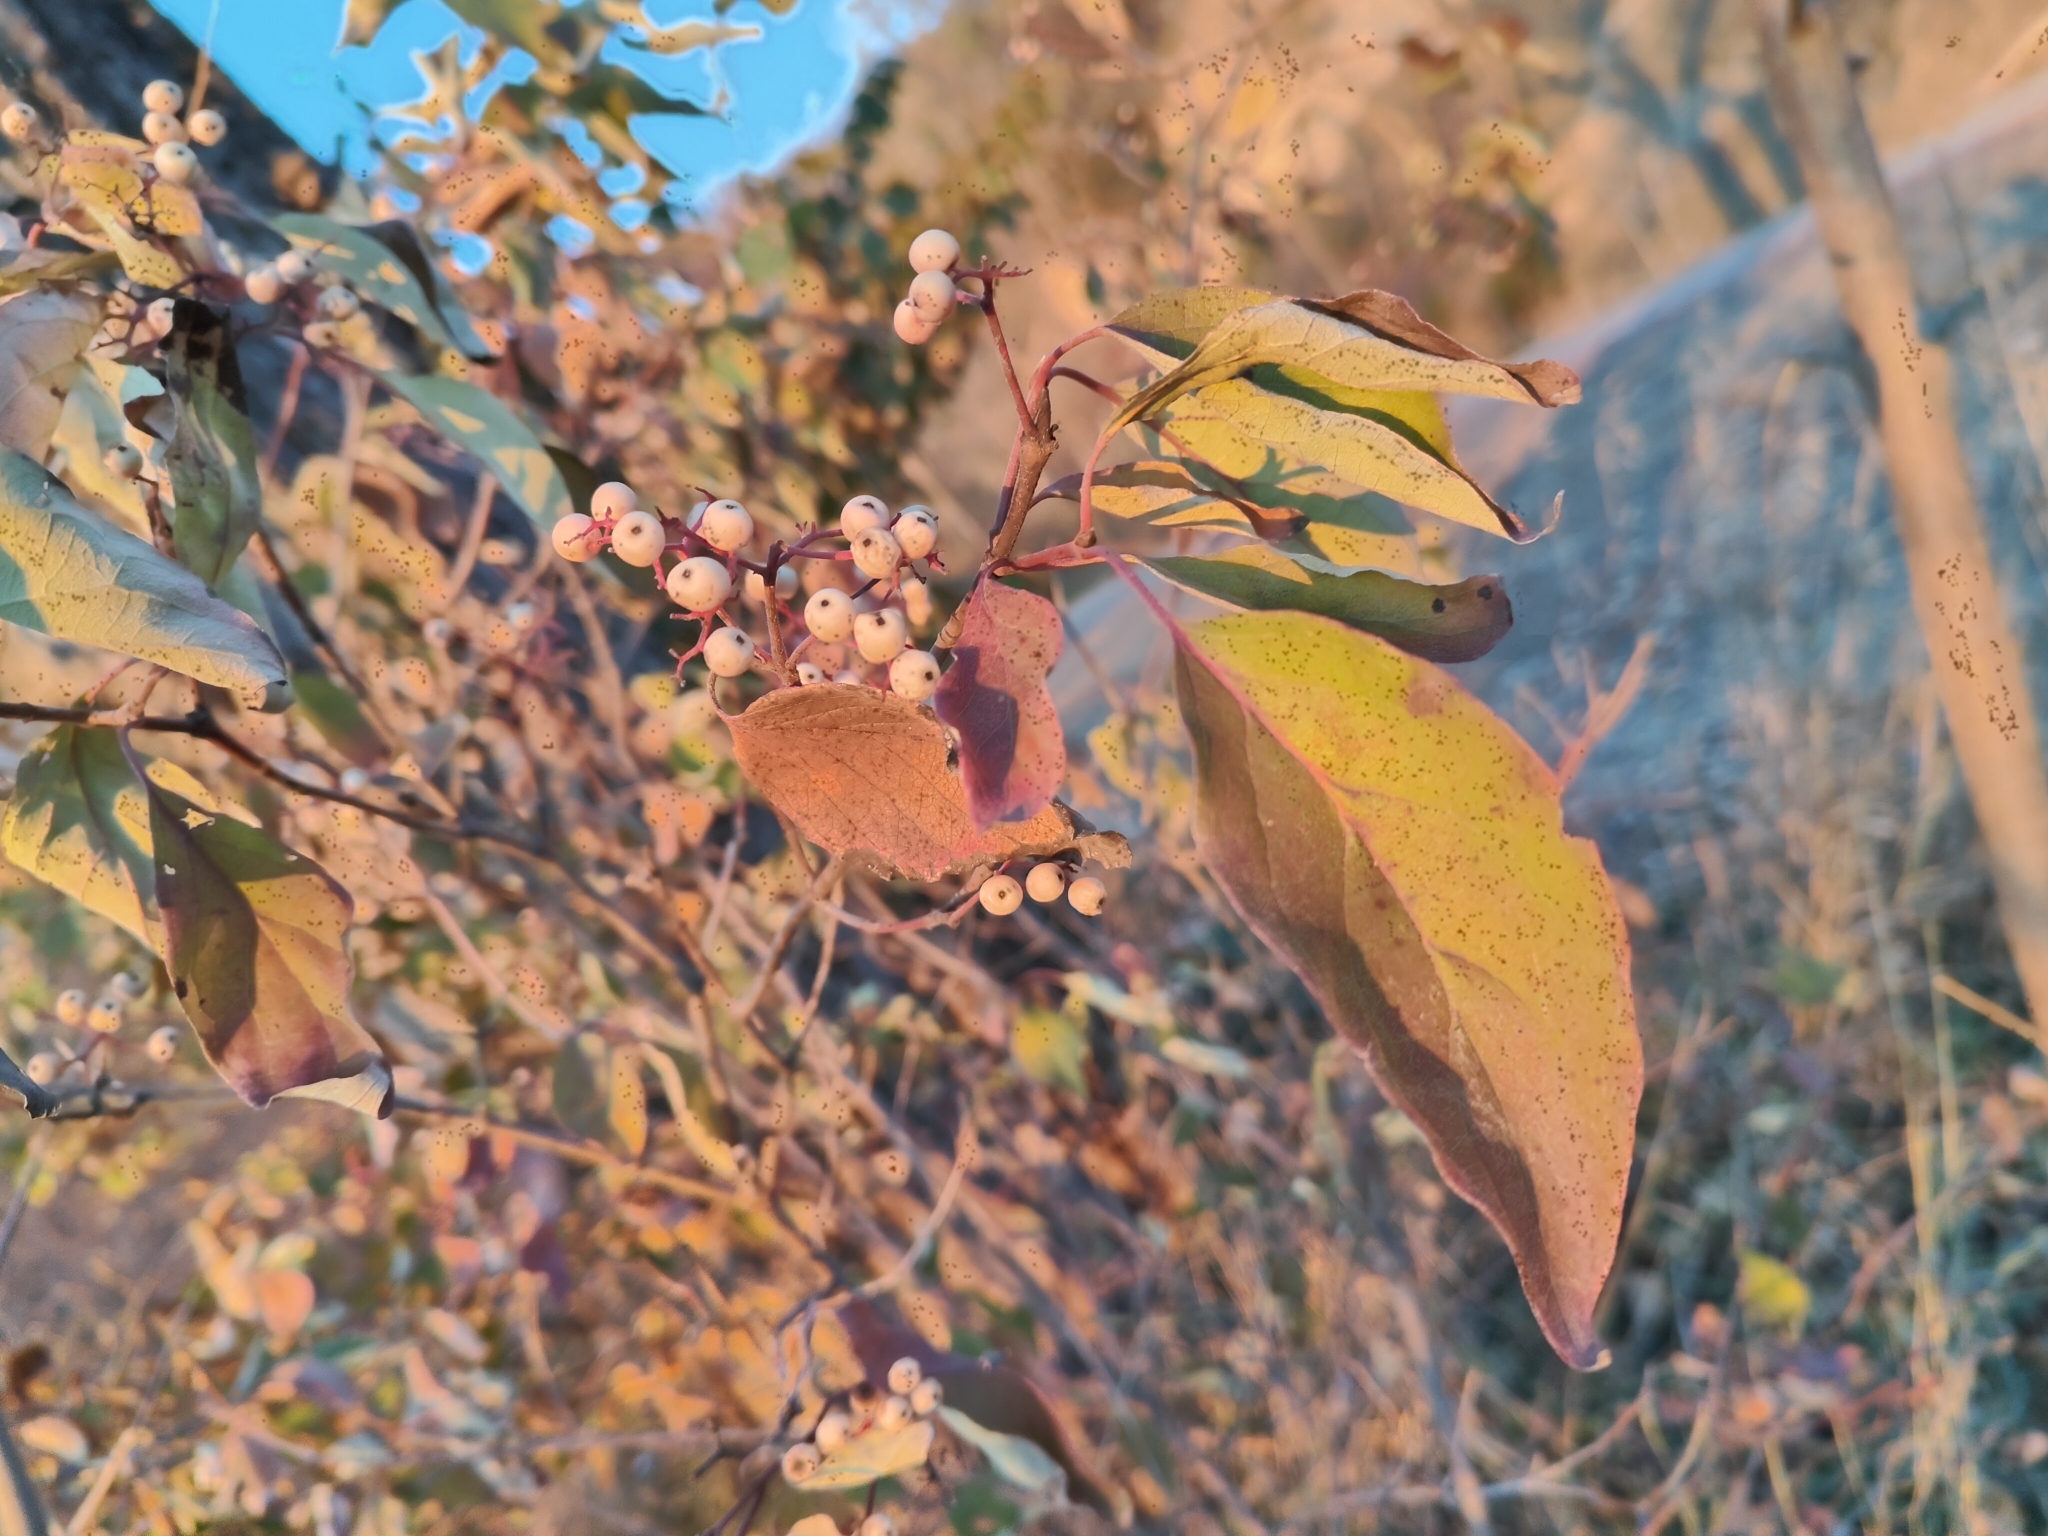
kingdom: Plantae
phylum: Tracheophyta
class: Magnoliopsida
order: Cornales
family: Cornaceae
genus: Cornus
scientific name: Cornus drummondii
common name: Rough-leaf dogwood
